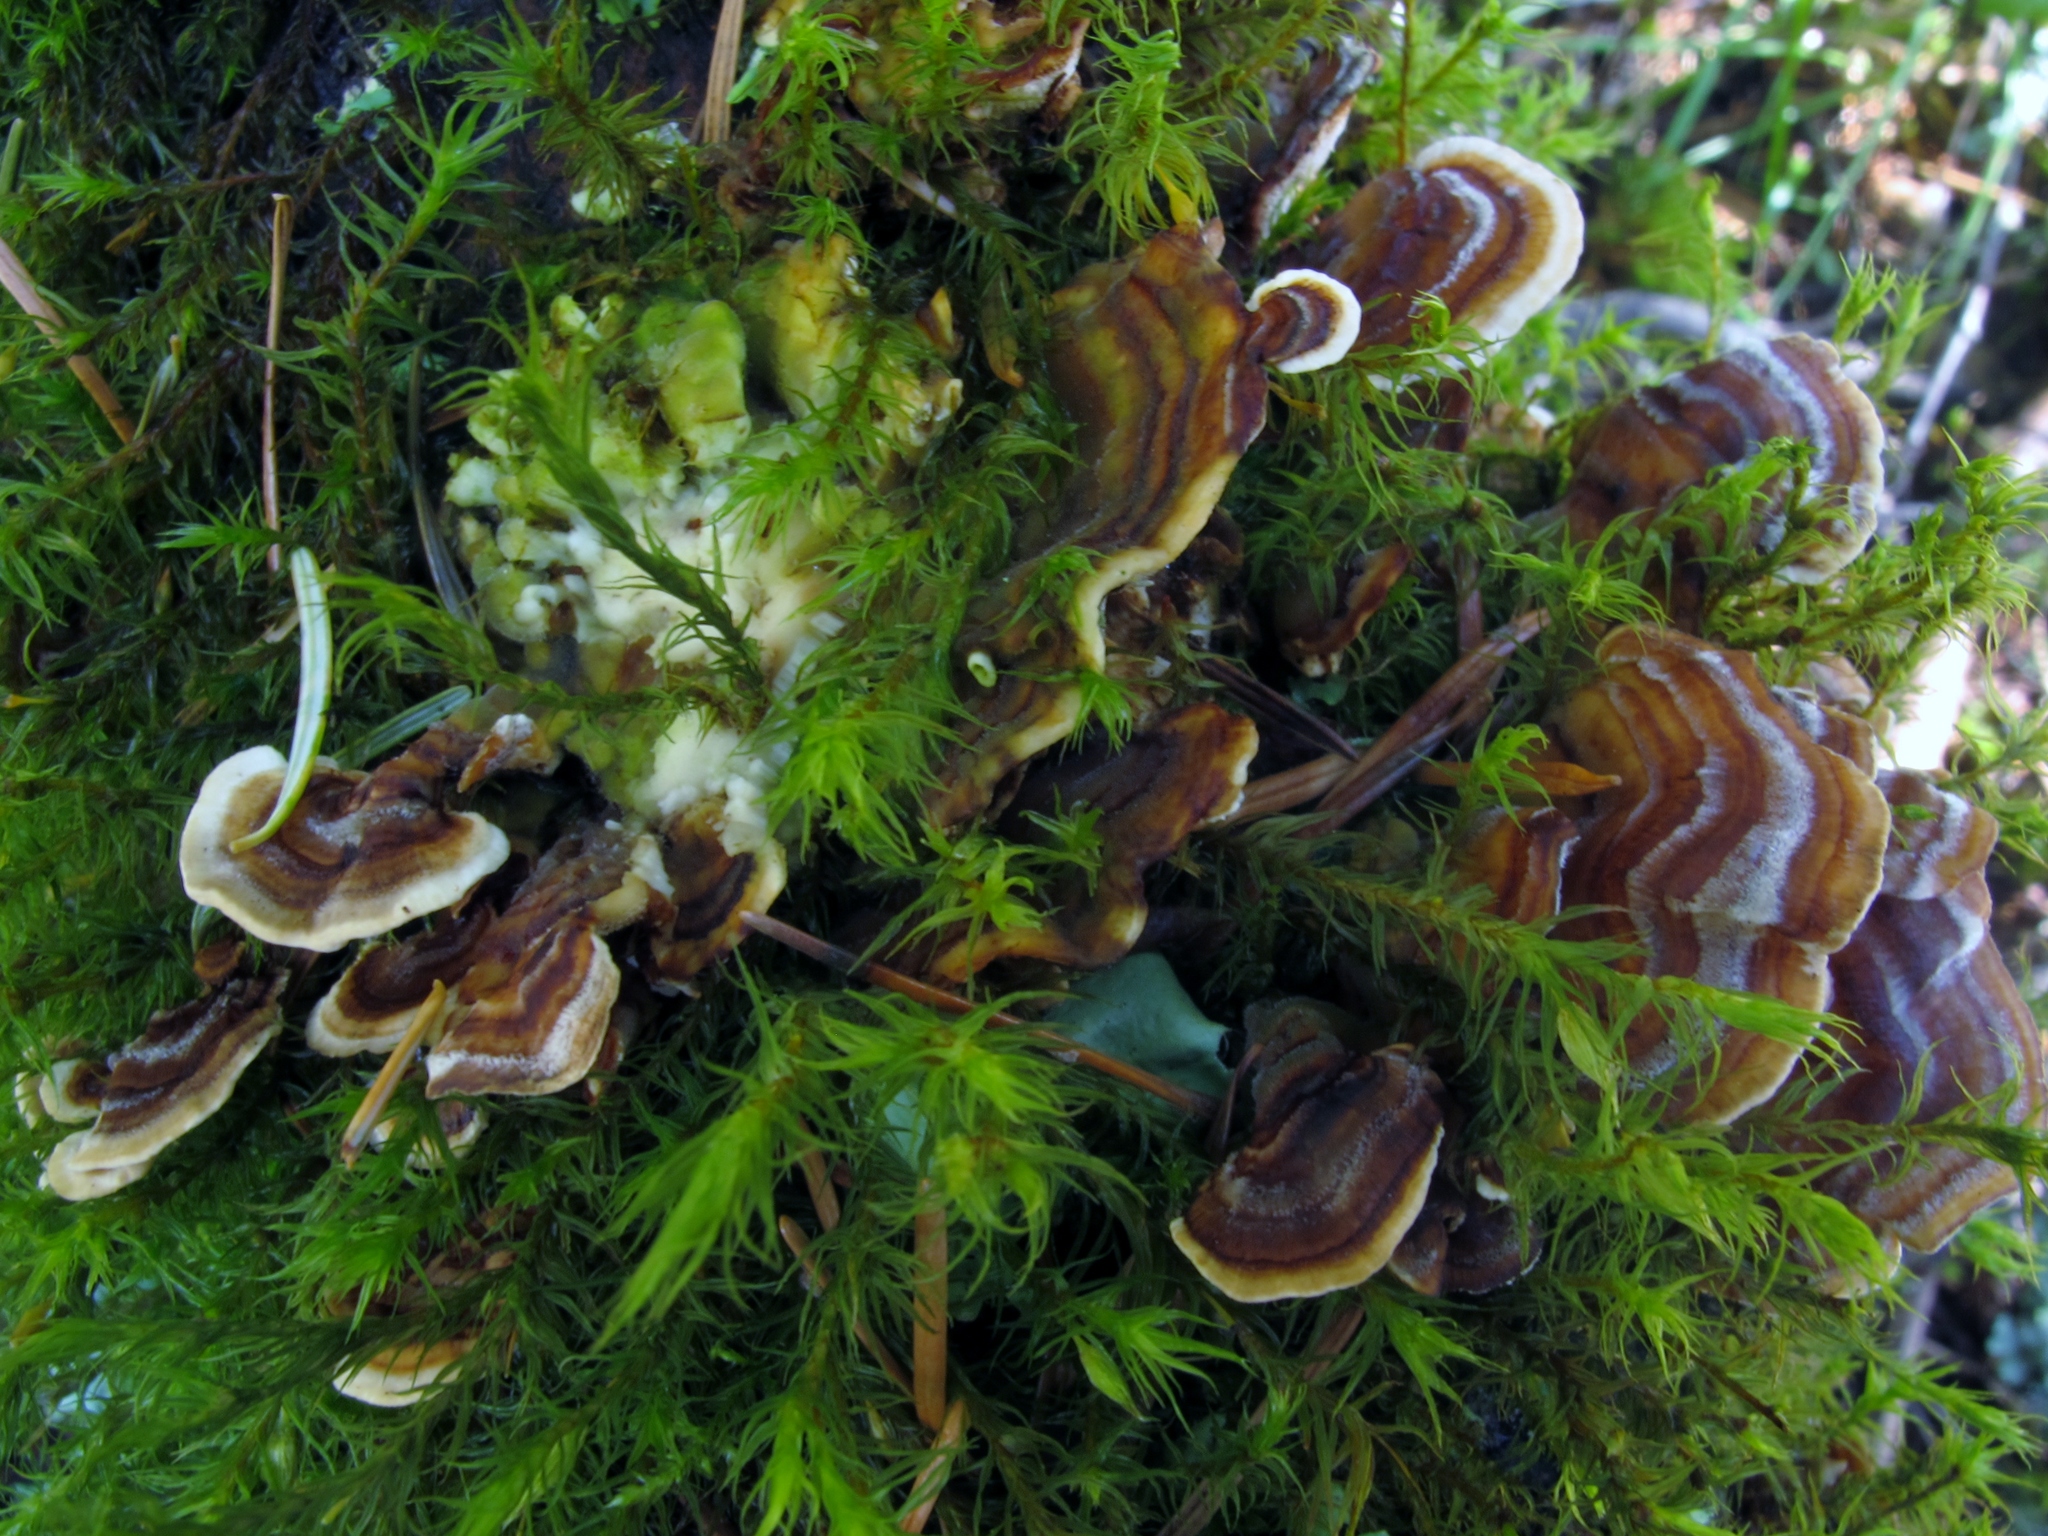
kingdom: Fungi
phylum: Basidiomycota
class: Agaricomycetes
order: Polyporales
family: Polyporaceae
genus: Trametes
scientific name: Trametes versicolor
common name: Turkeytail
